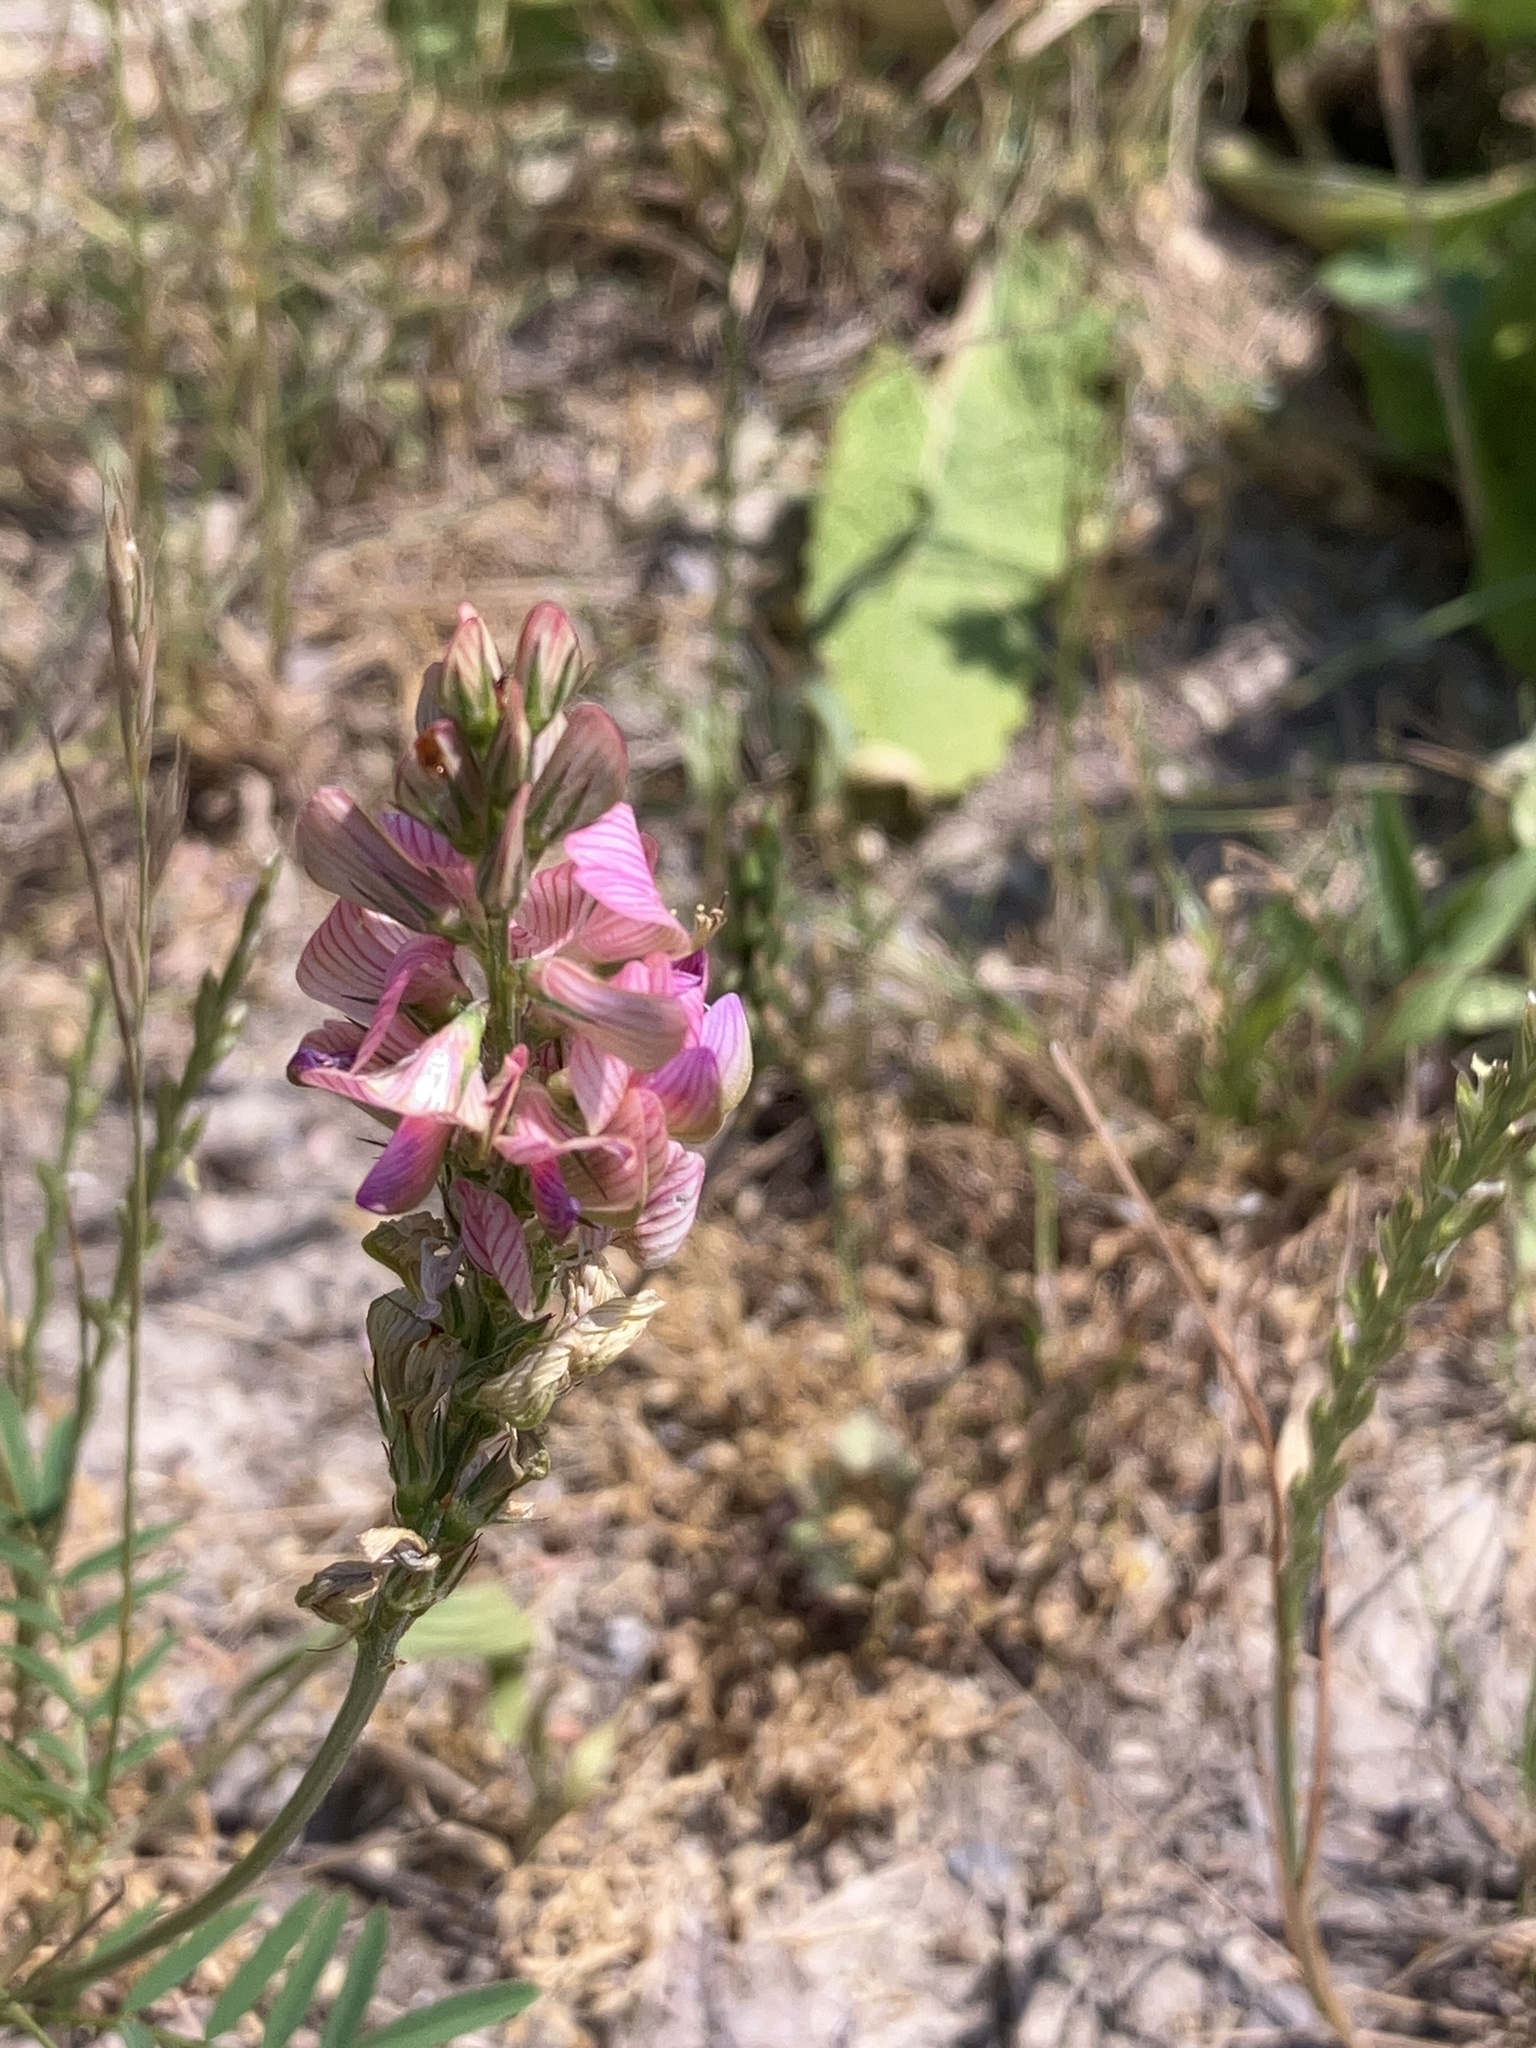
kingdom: Plantae
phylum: Tracheophyta
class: Magnoliopsida
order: Fabales
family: Fabaceae
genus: Onobrychis
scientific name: Onobrychis viciifolia
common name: Sainfoin
